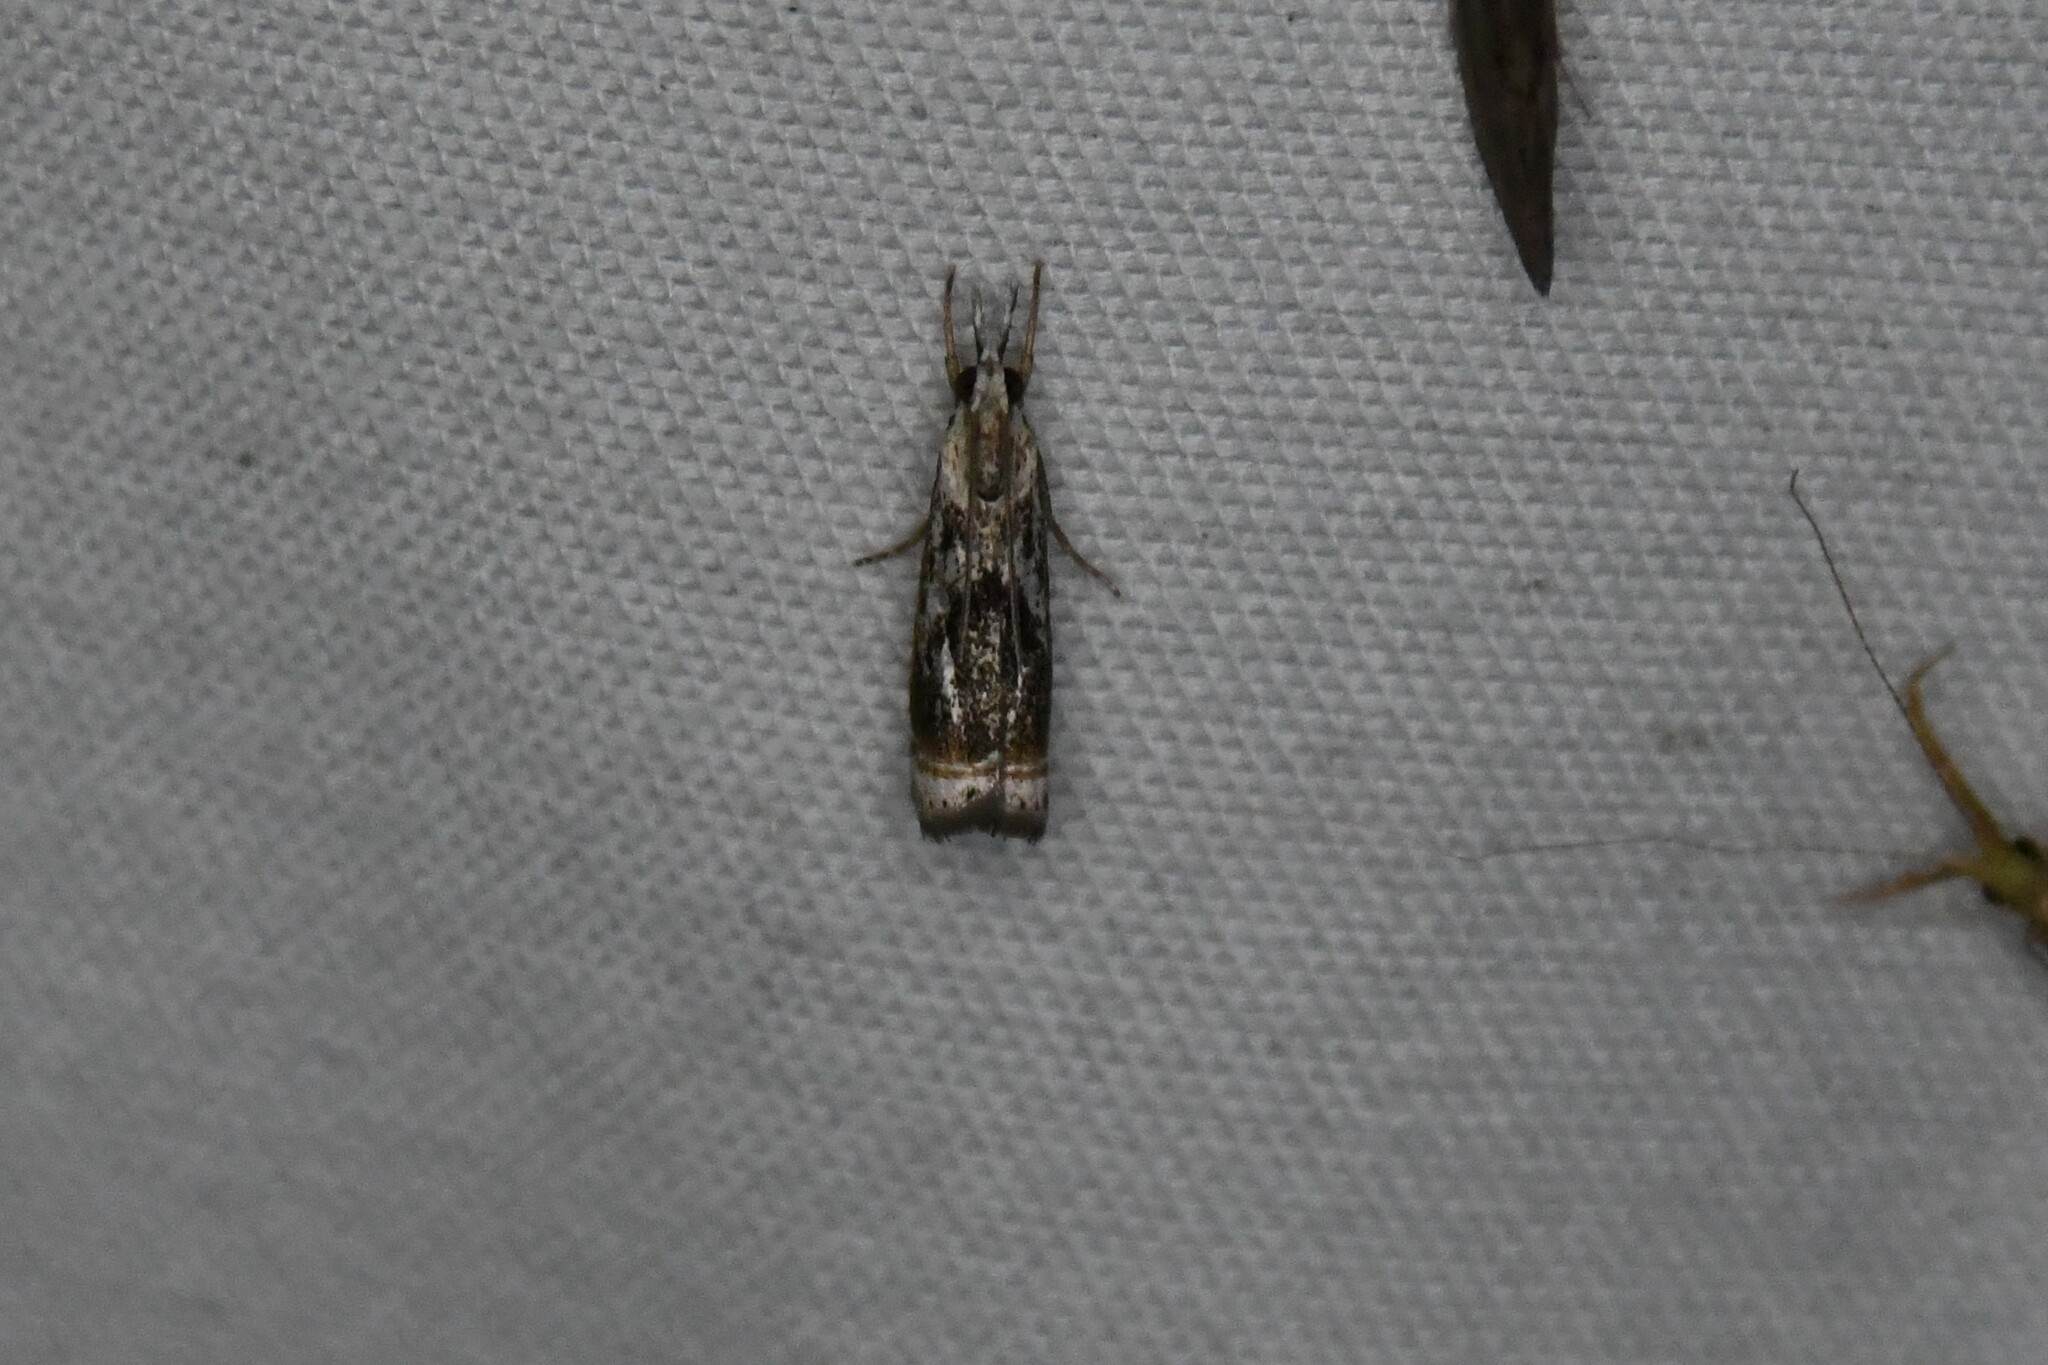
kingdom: Animalia
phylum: Arthropoda
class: Insecta
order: Lepidoptera
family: Crambidae
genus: Microcrambus
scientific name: Microcrambus elegans
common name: Elegant grass-veneer
